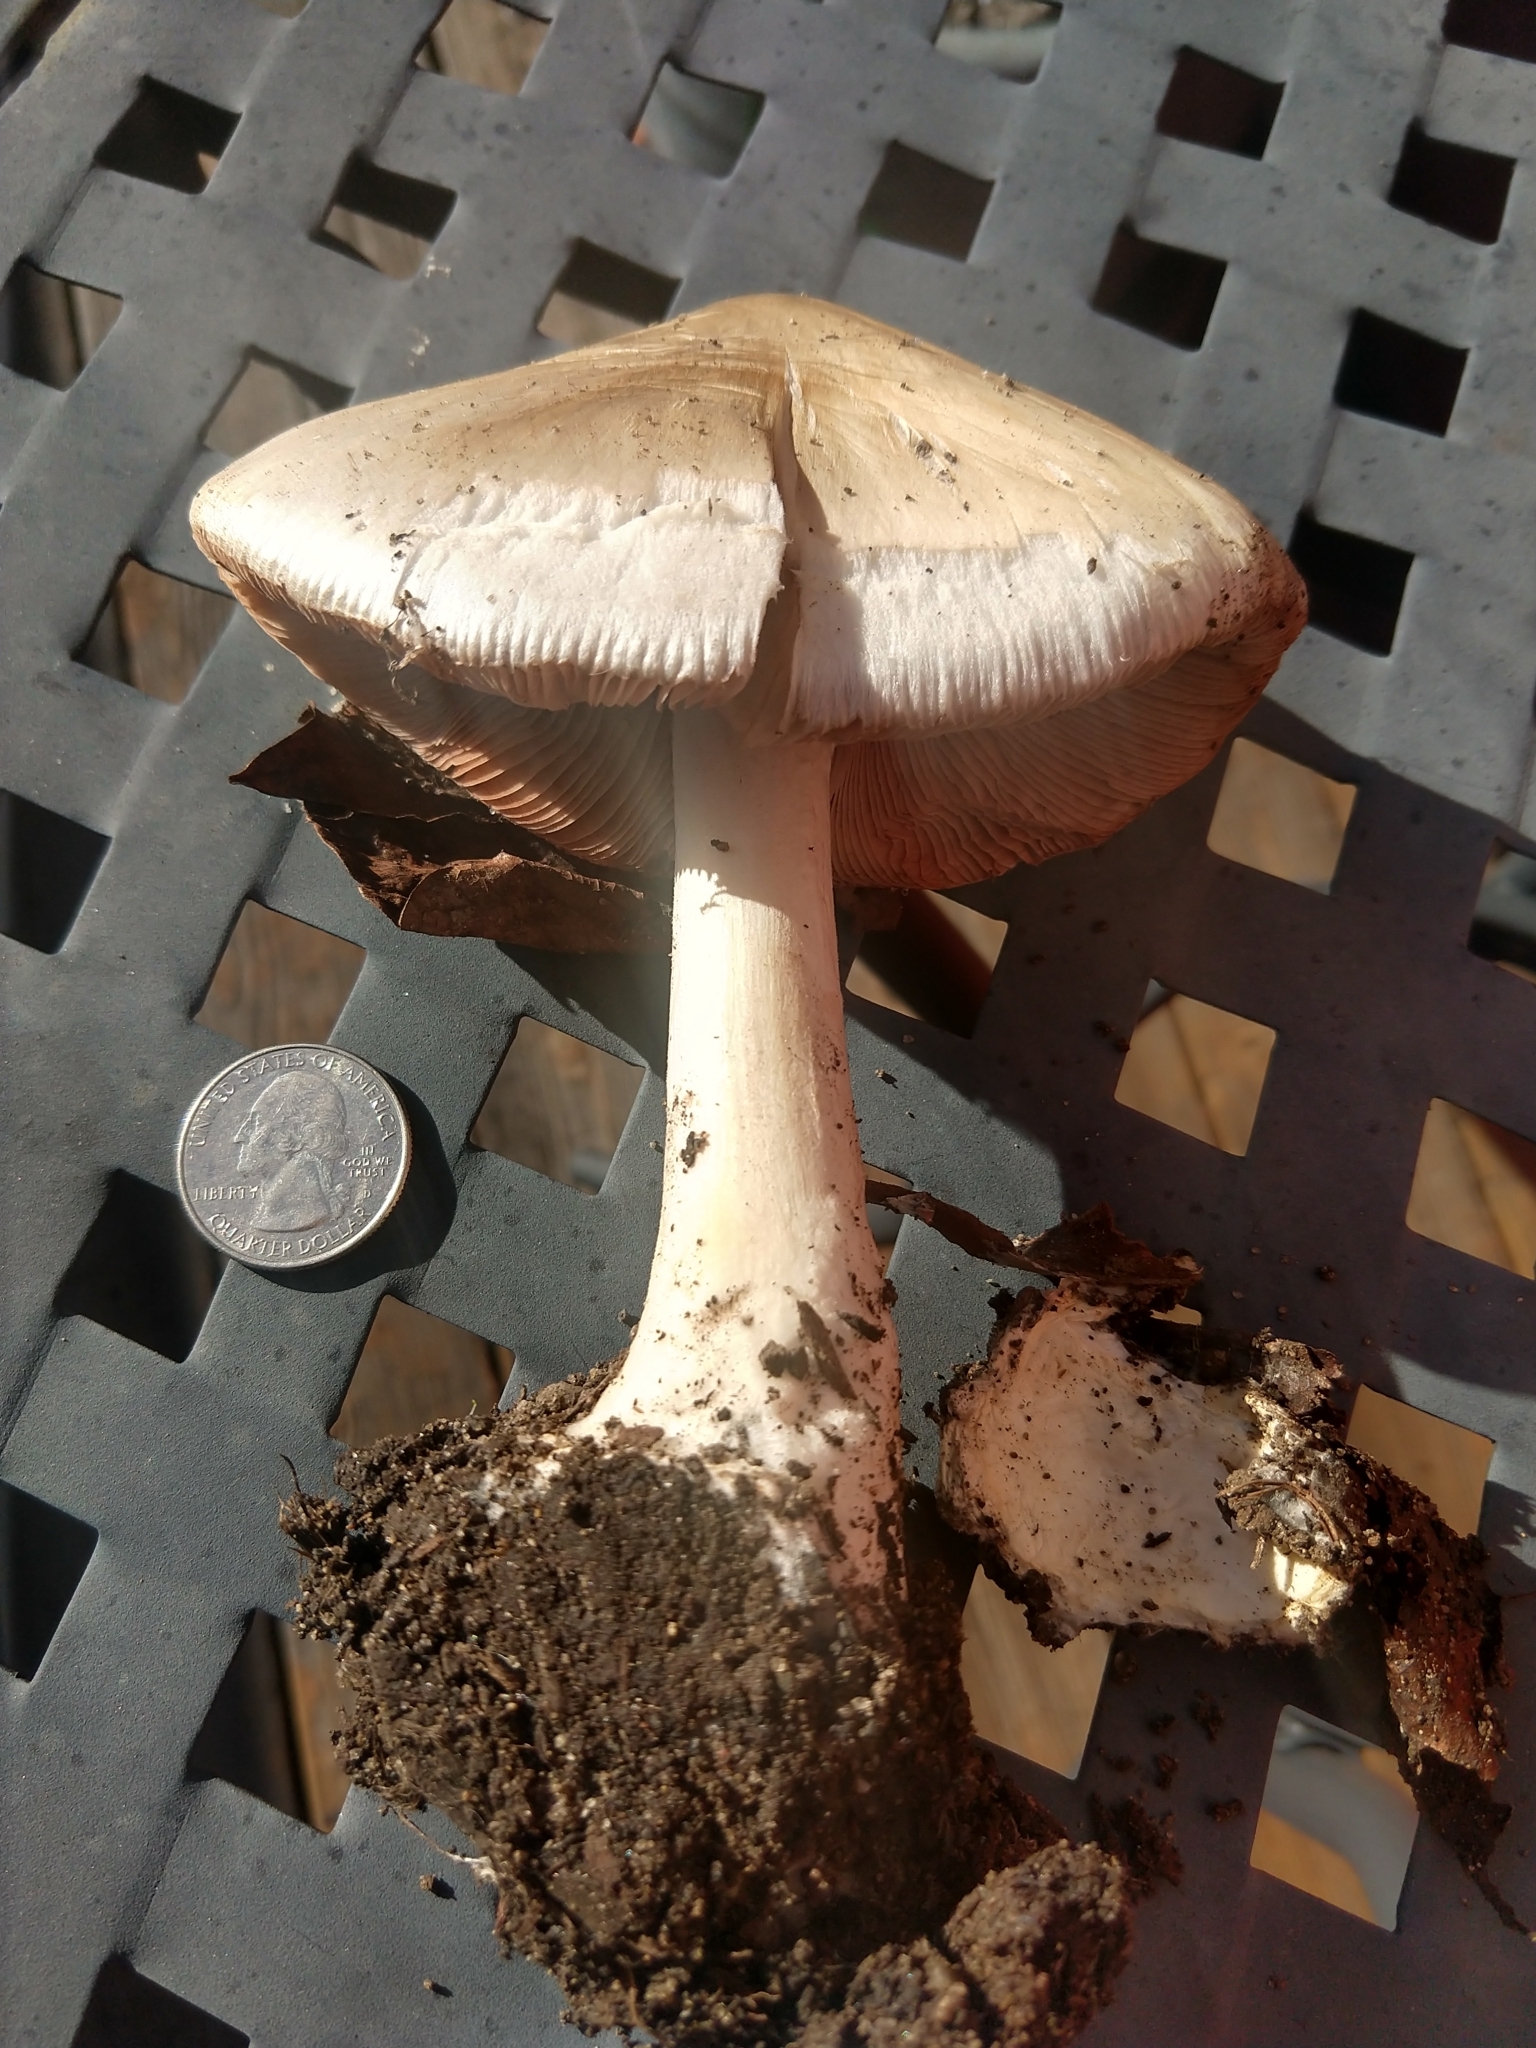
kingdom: Fungi
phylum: Basidiomycota
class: Agaricomycetes
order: Agaricales
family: Pluteaceae
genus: Volvopluteus
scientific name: Volvopluteus gloiocephalus
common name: Stubble rosegill
